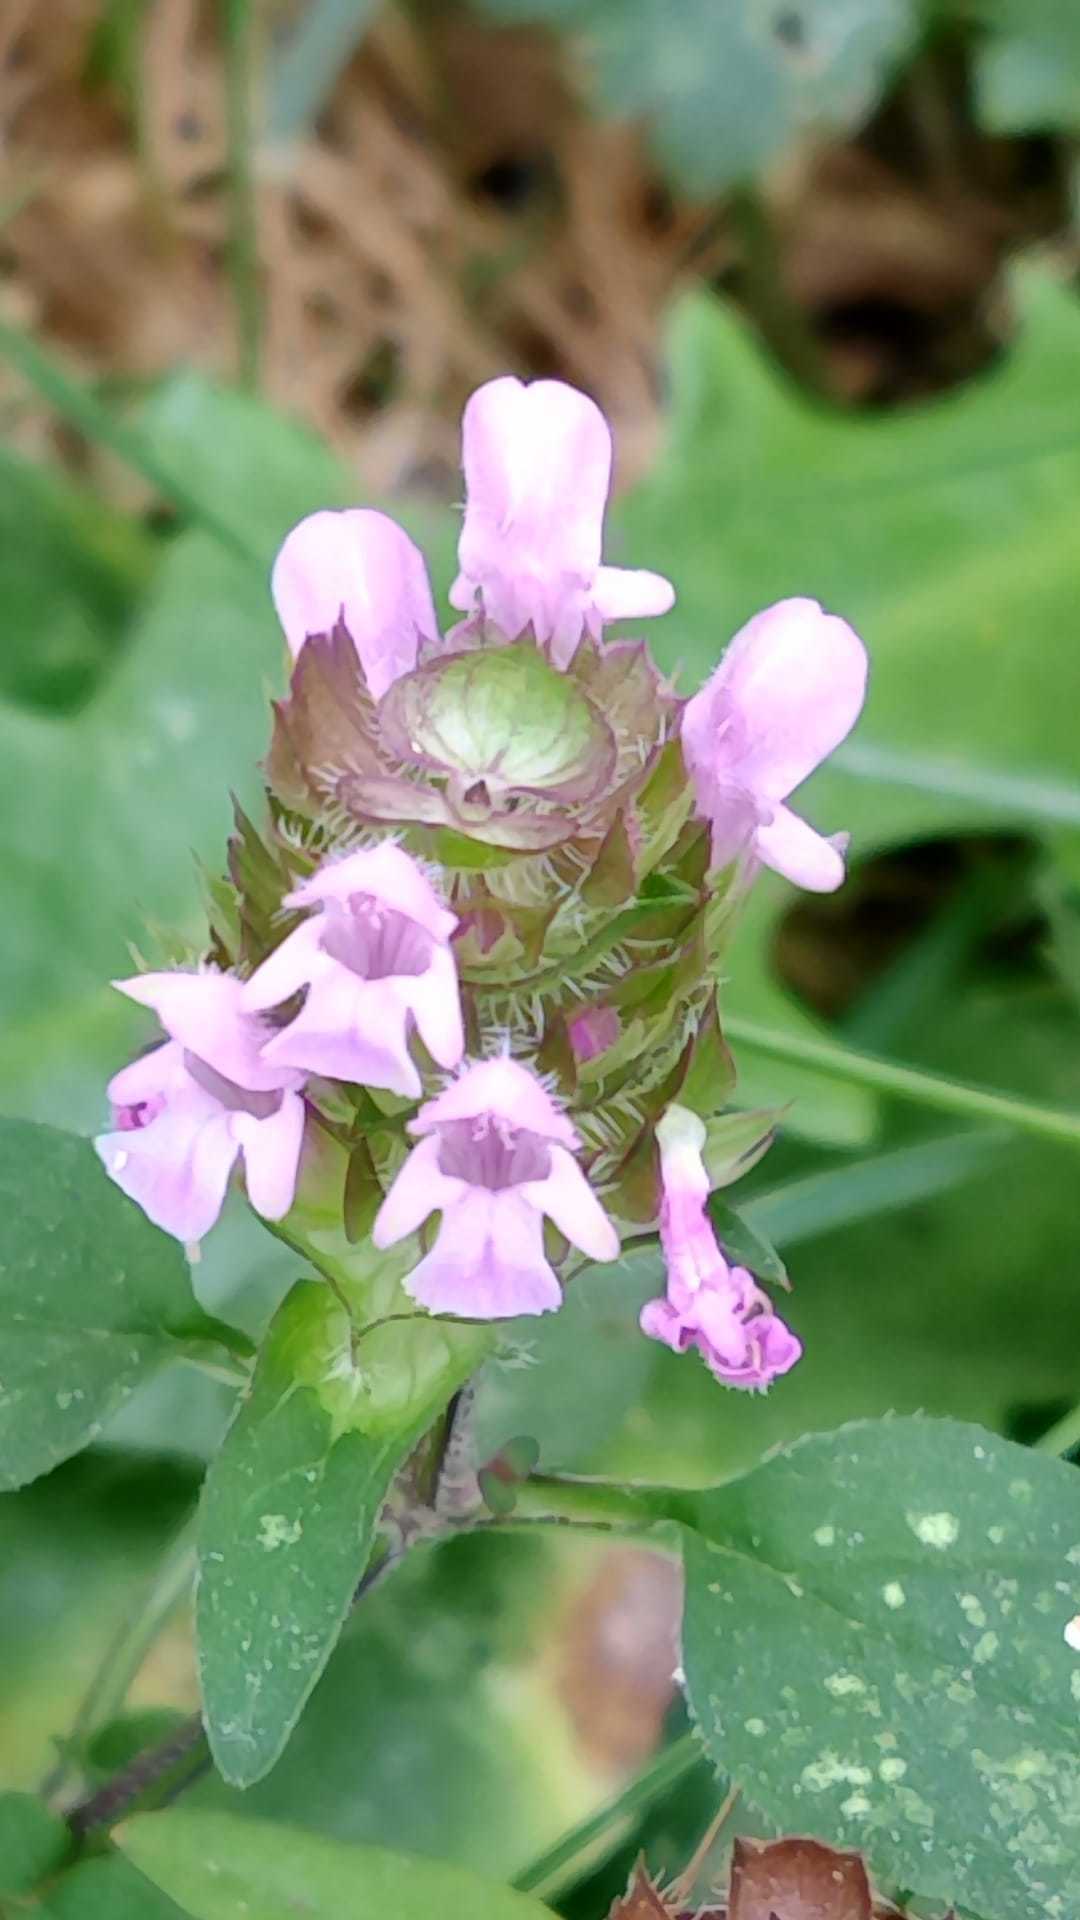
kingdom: Plantae
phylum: Tracheophyta
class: Magnoliopsida
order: Lamiales
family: Lamiaceae
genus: Prunella
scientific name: Prunella vulgaris
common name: Heal-all
